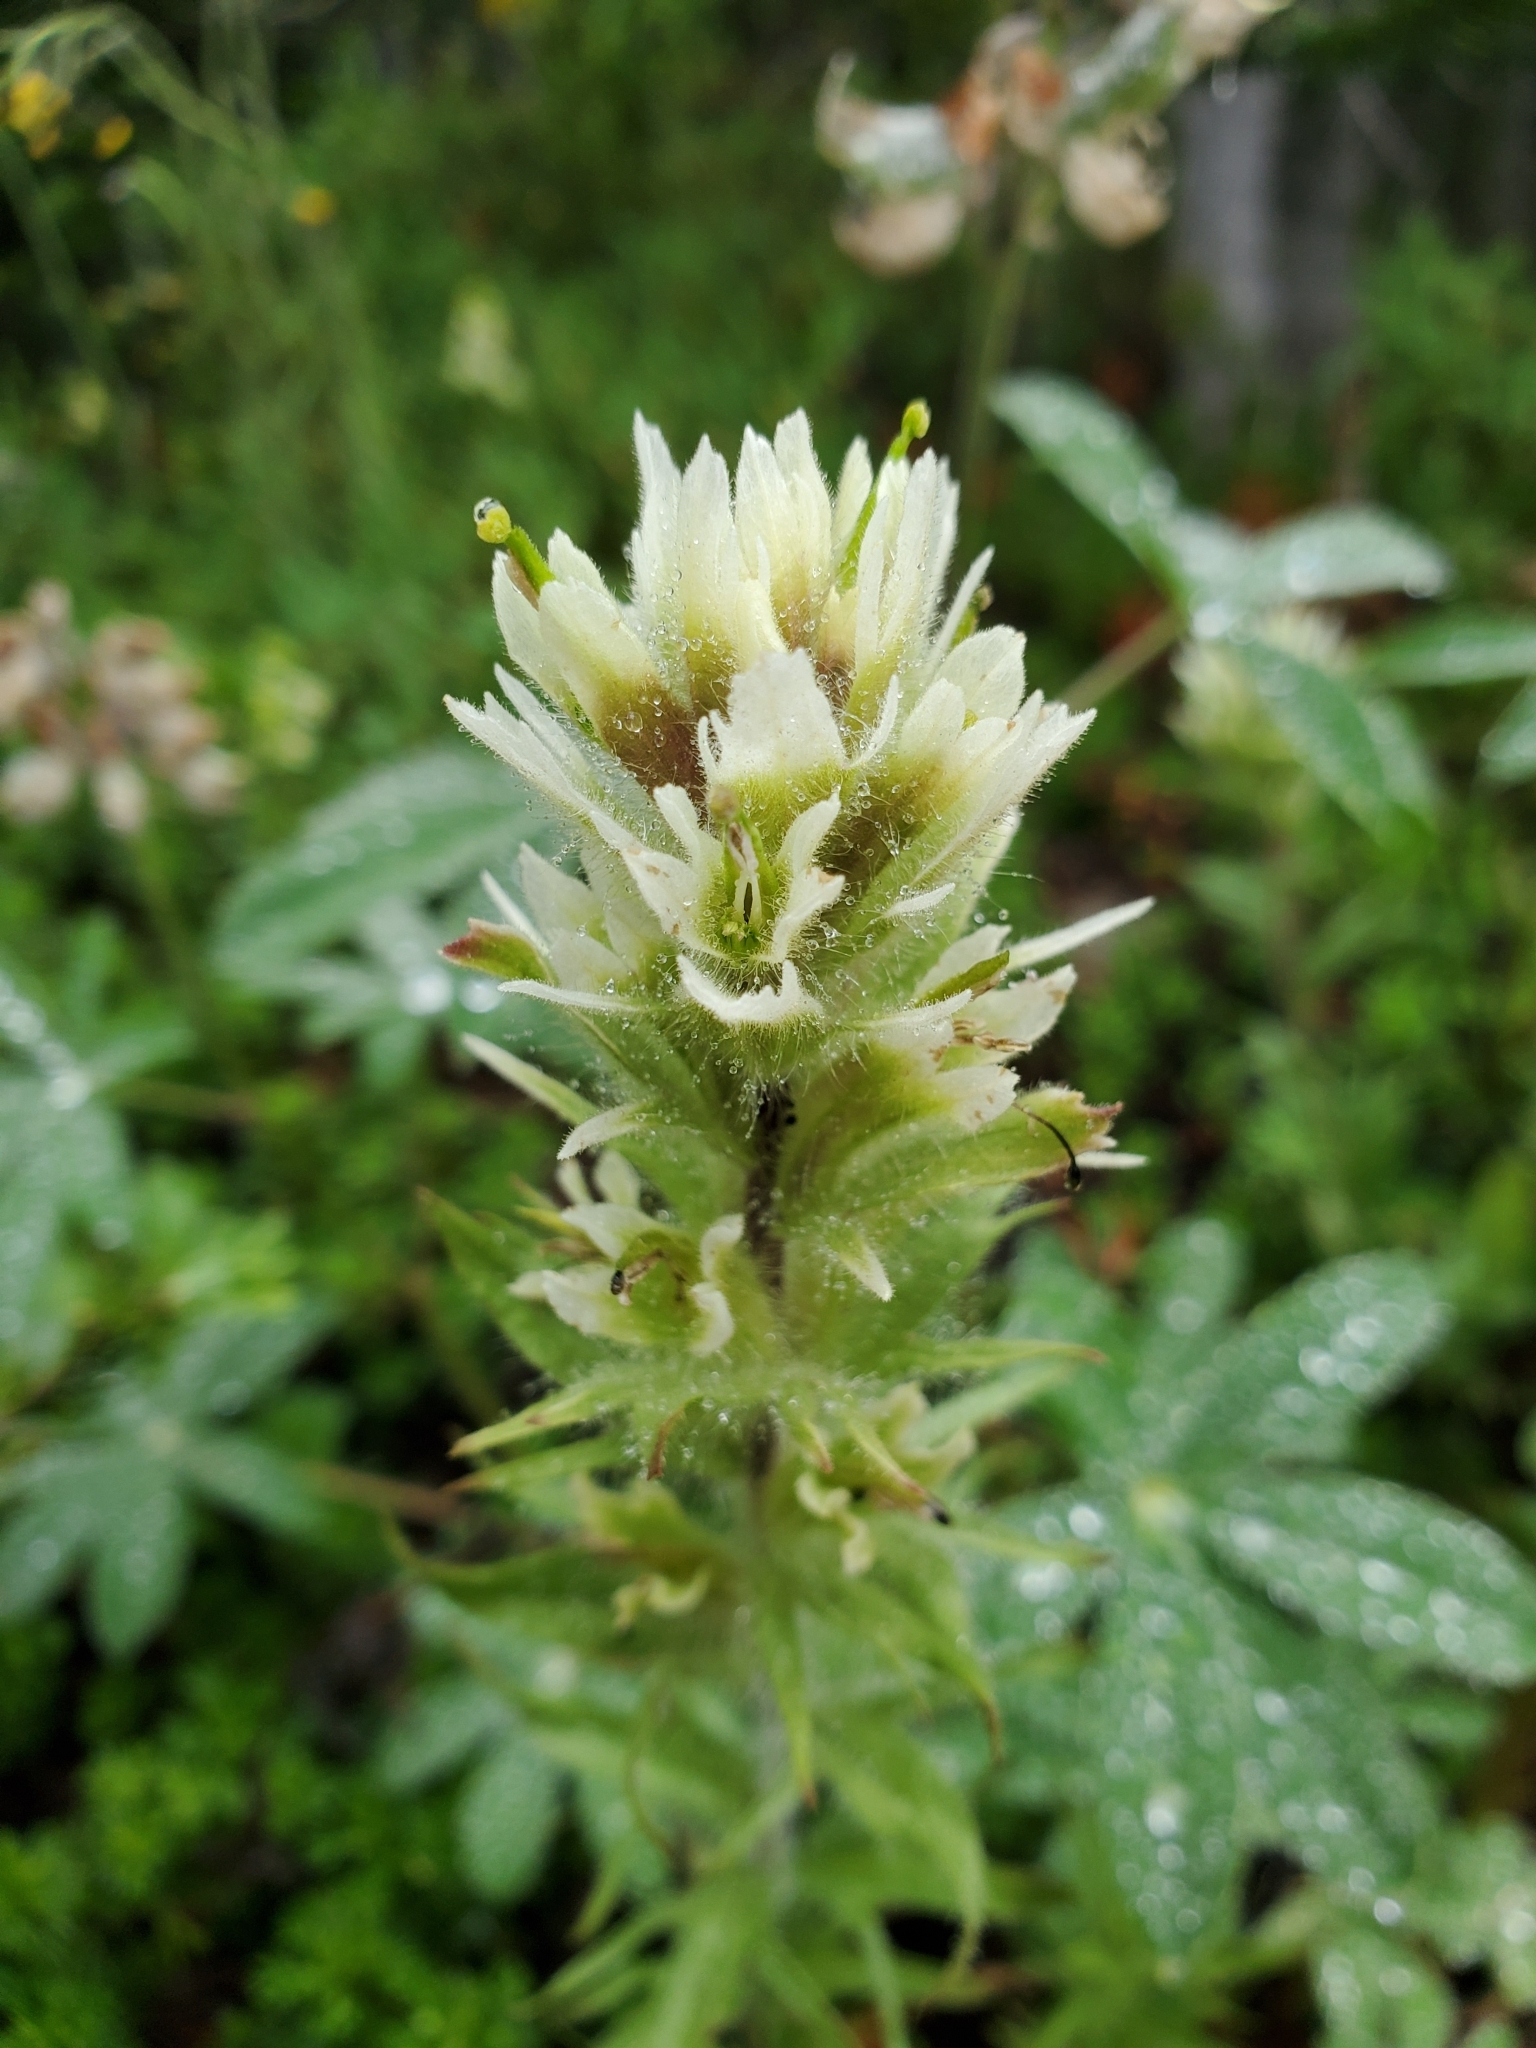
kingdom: Plantae
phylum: Tracheophyta
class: Magnoliopsida
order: Lamiales
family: Orobanchaceae
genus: Castilleja
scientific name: Castilleja parviflora
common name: Mountain paintbrush
